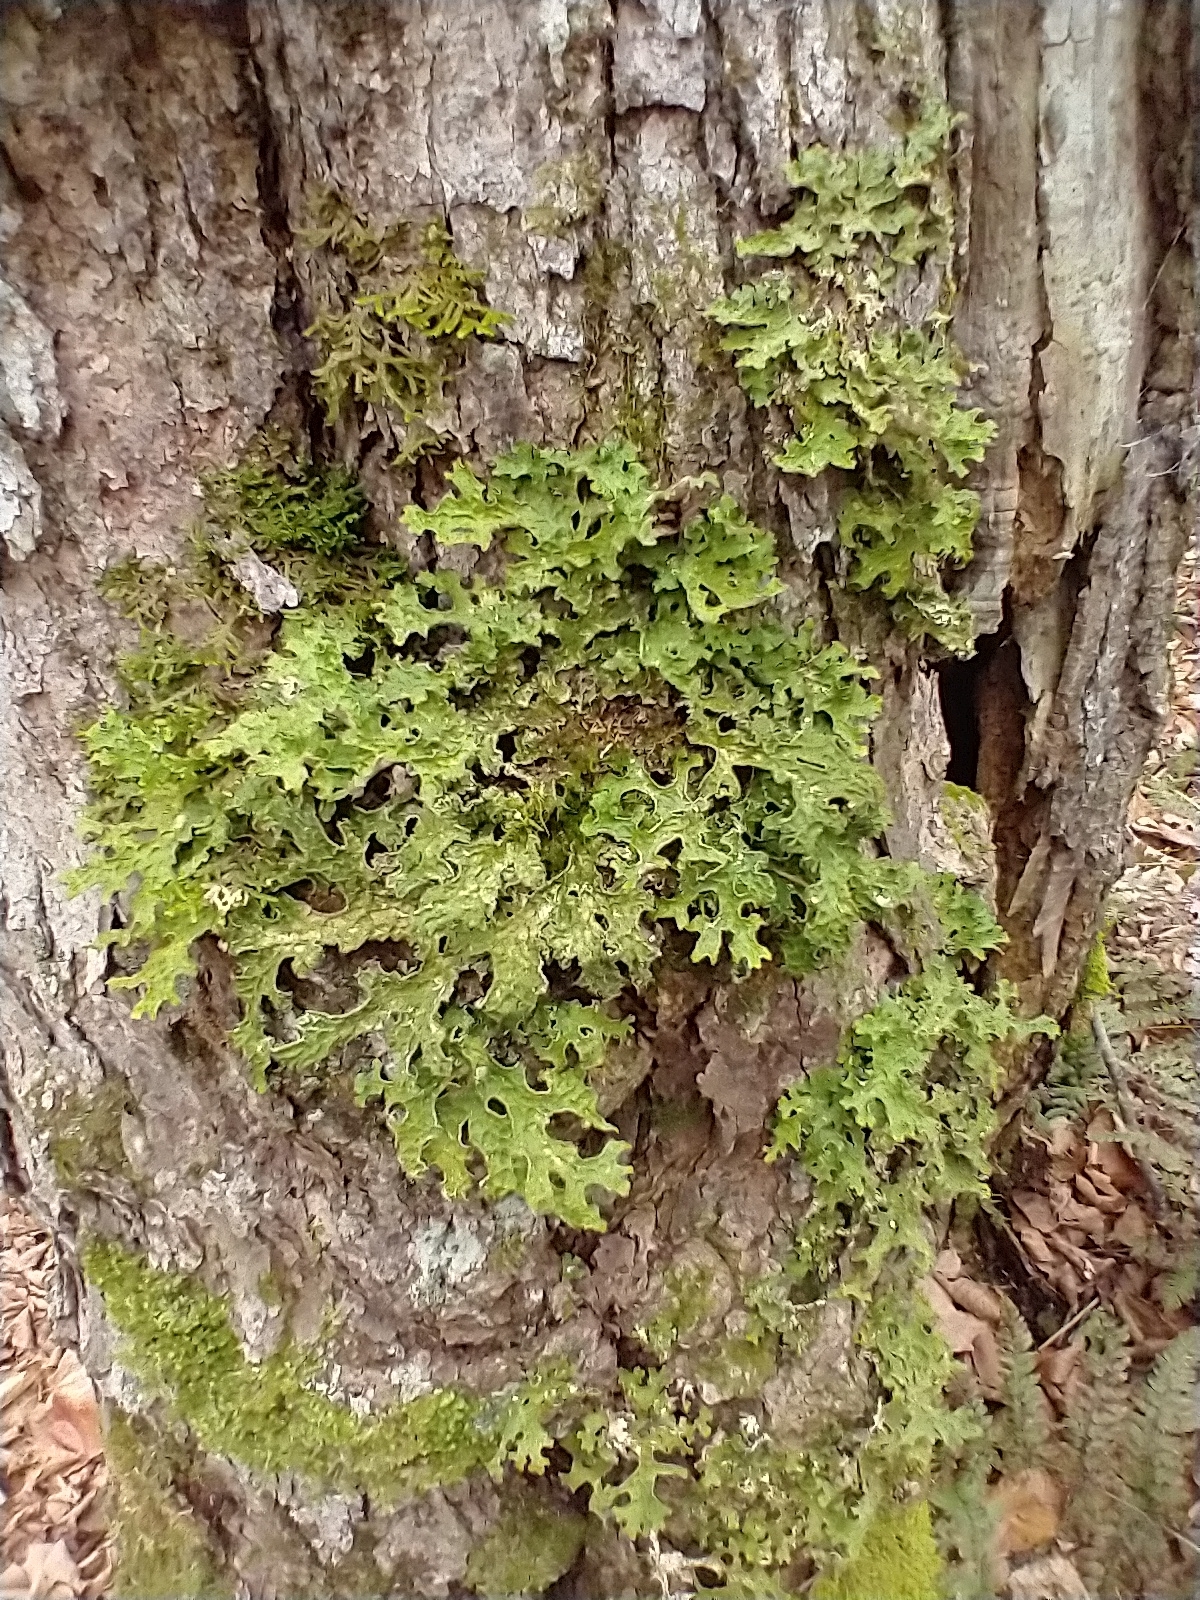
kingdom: Fungi
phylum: Ascomycota
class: Lecanoromycetes
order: Peltigerales
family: Lobariaceae
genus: Lobaria
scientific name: Lobaria pulmonaria
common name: Lungwort
